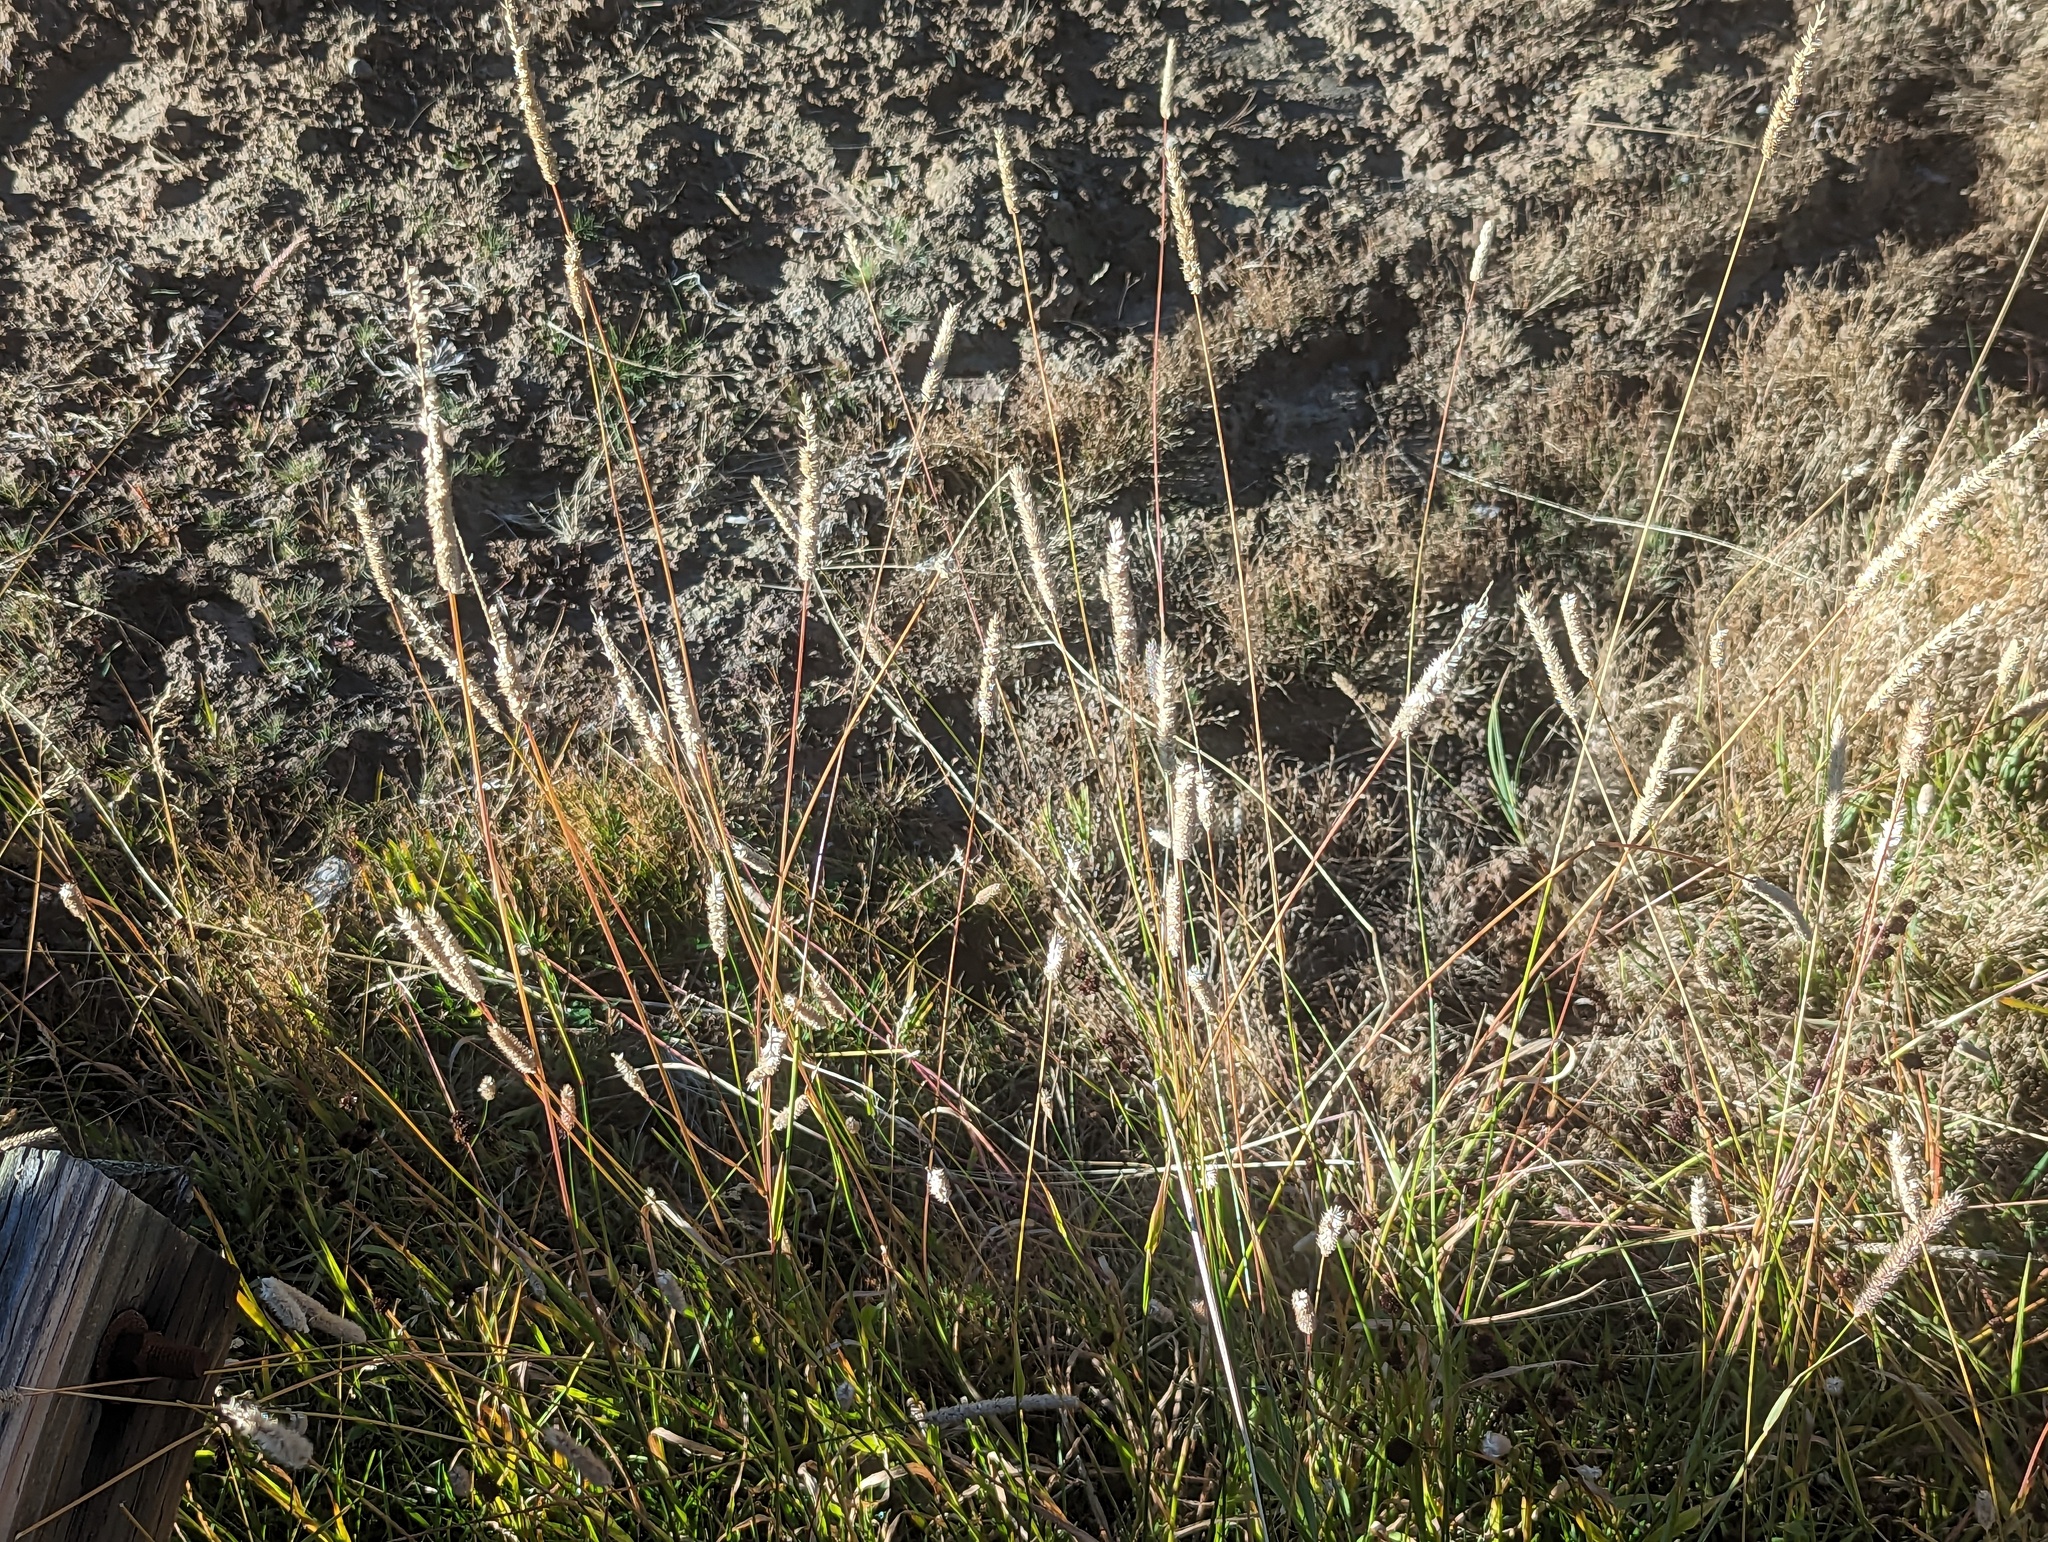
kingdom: Plantae
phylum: Tracheophyta
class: Liliopsida
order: Poales
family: Poaceae
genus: Phleum
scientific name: Phleum pratense
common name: Timothy grass
